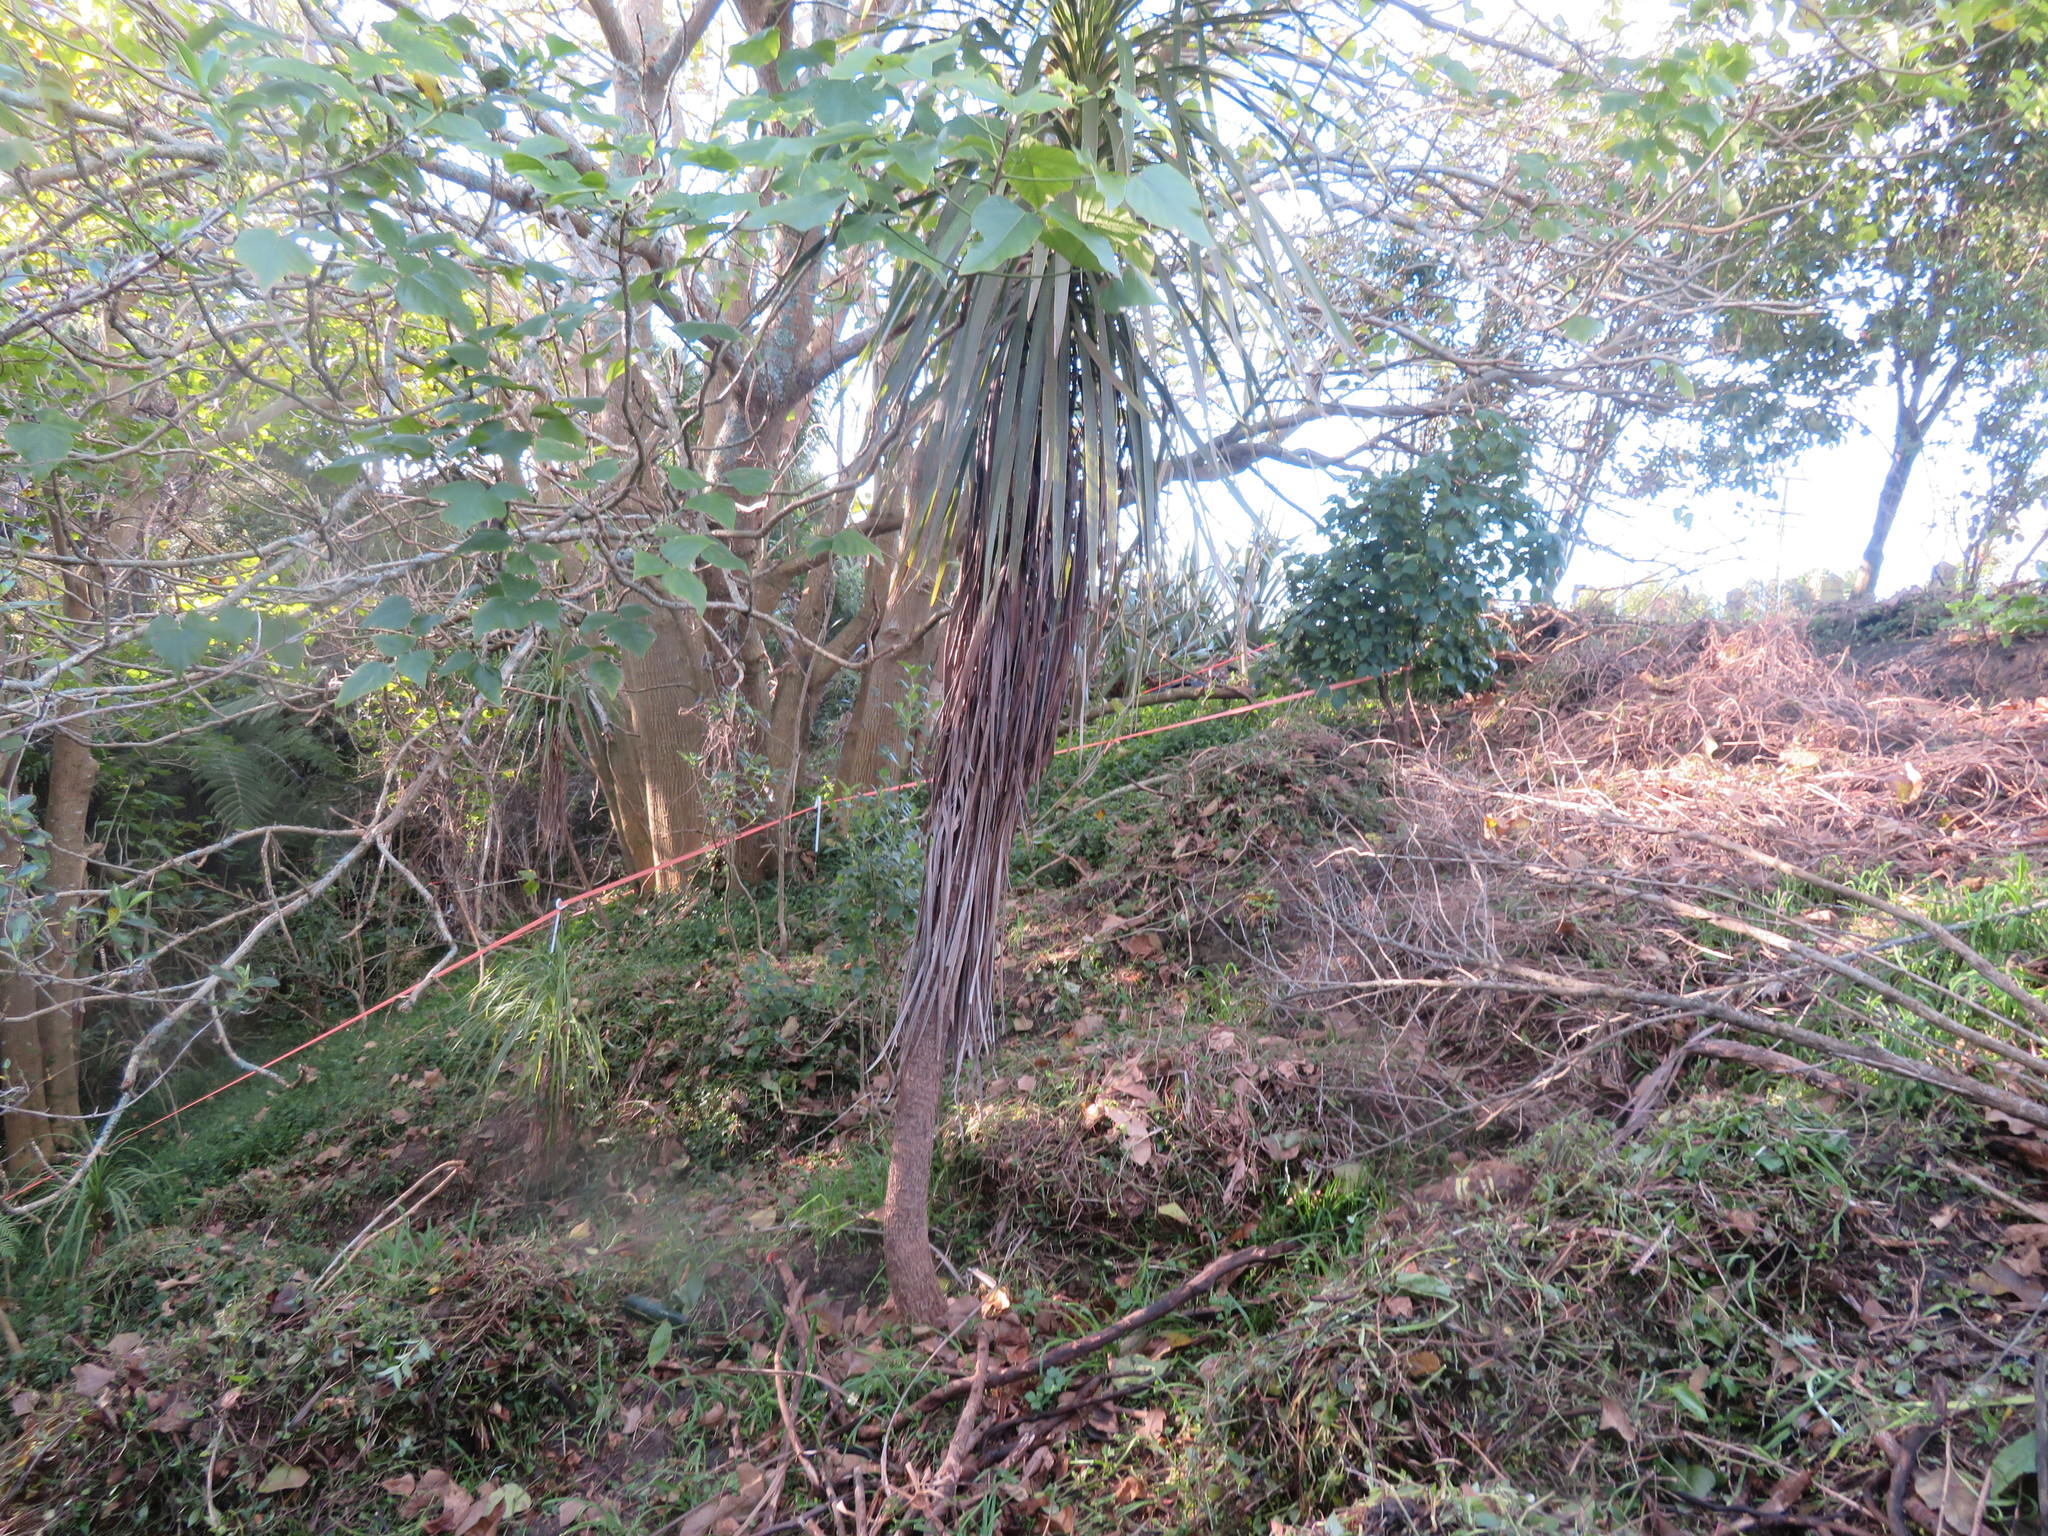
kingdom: Plantae
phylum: Tracheophyta
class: Liliopsida
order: Asparagales
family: Asparagaceae
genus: Cordyline
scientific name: Cordyline australis
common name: Cabbage-palm
